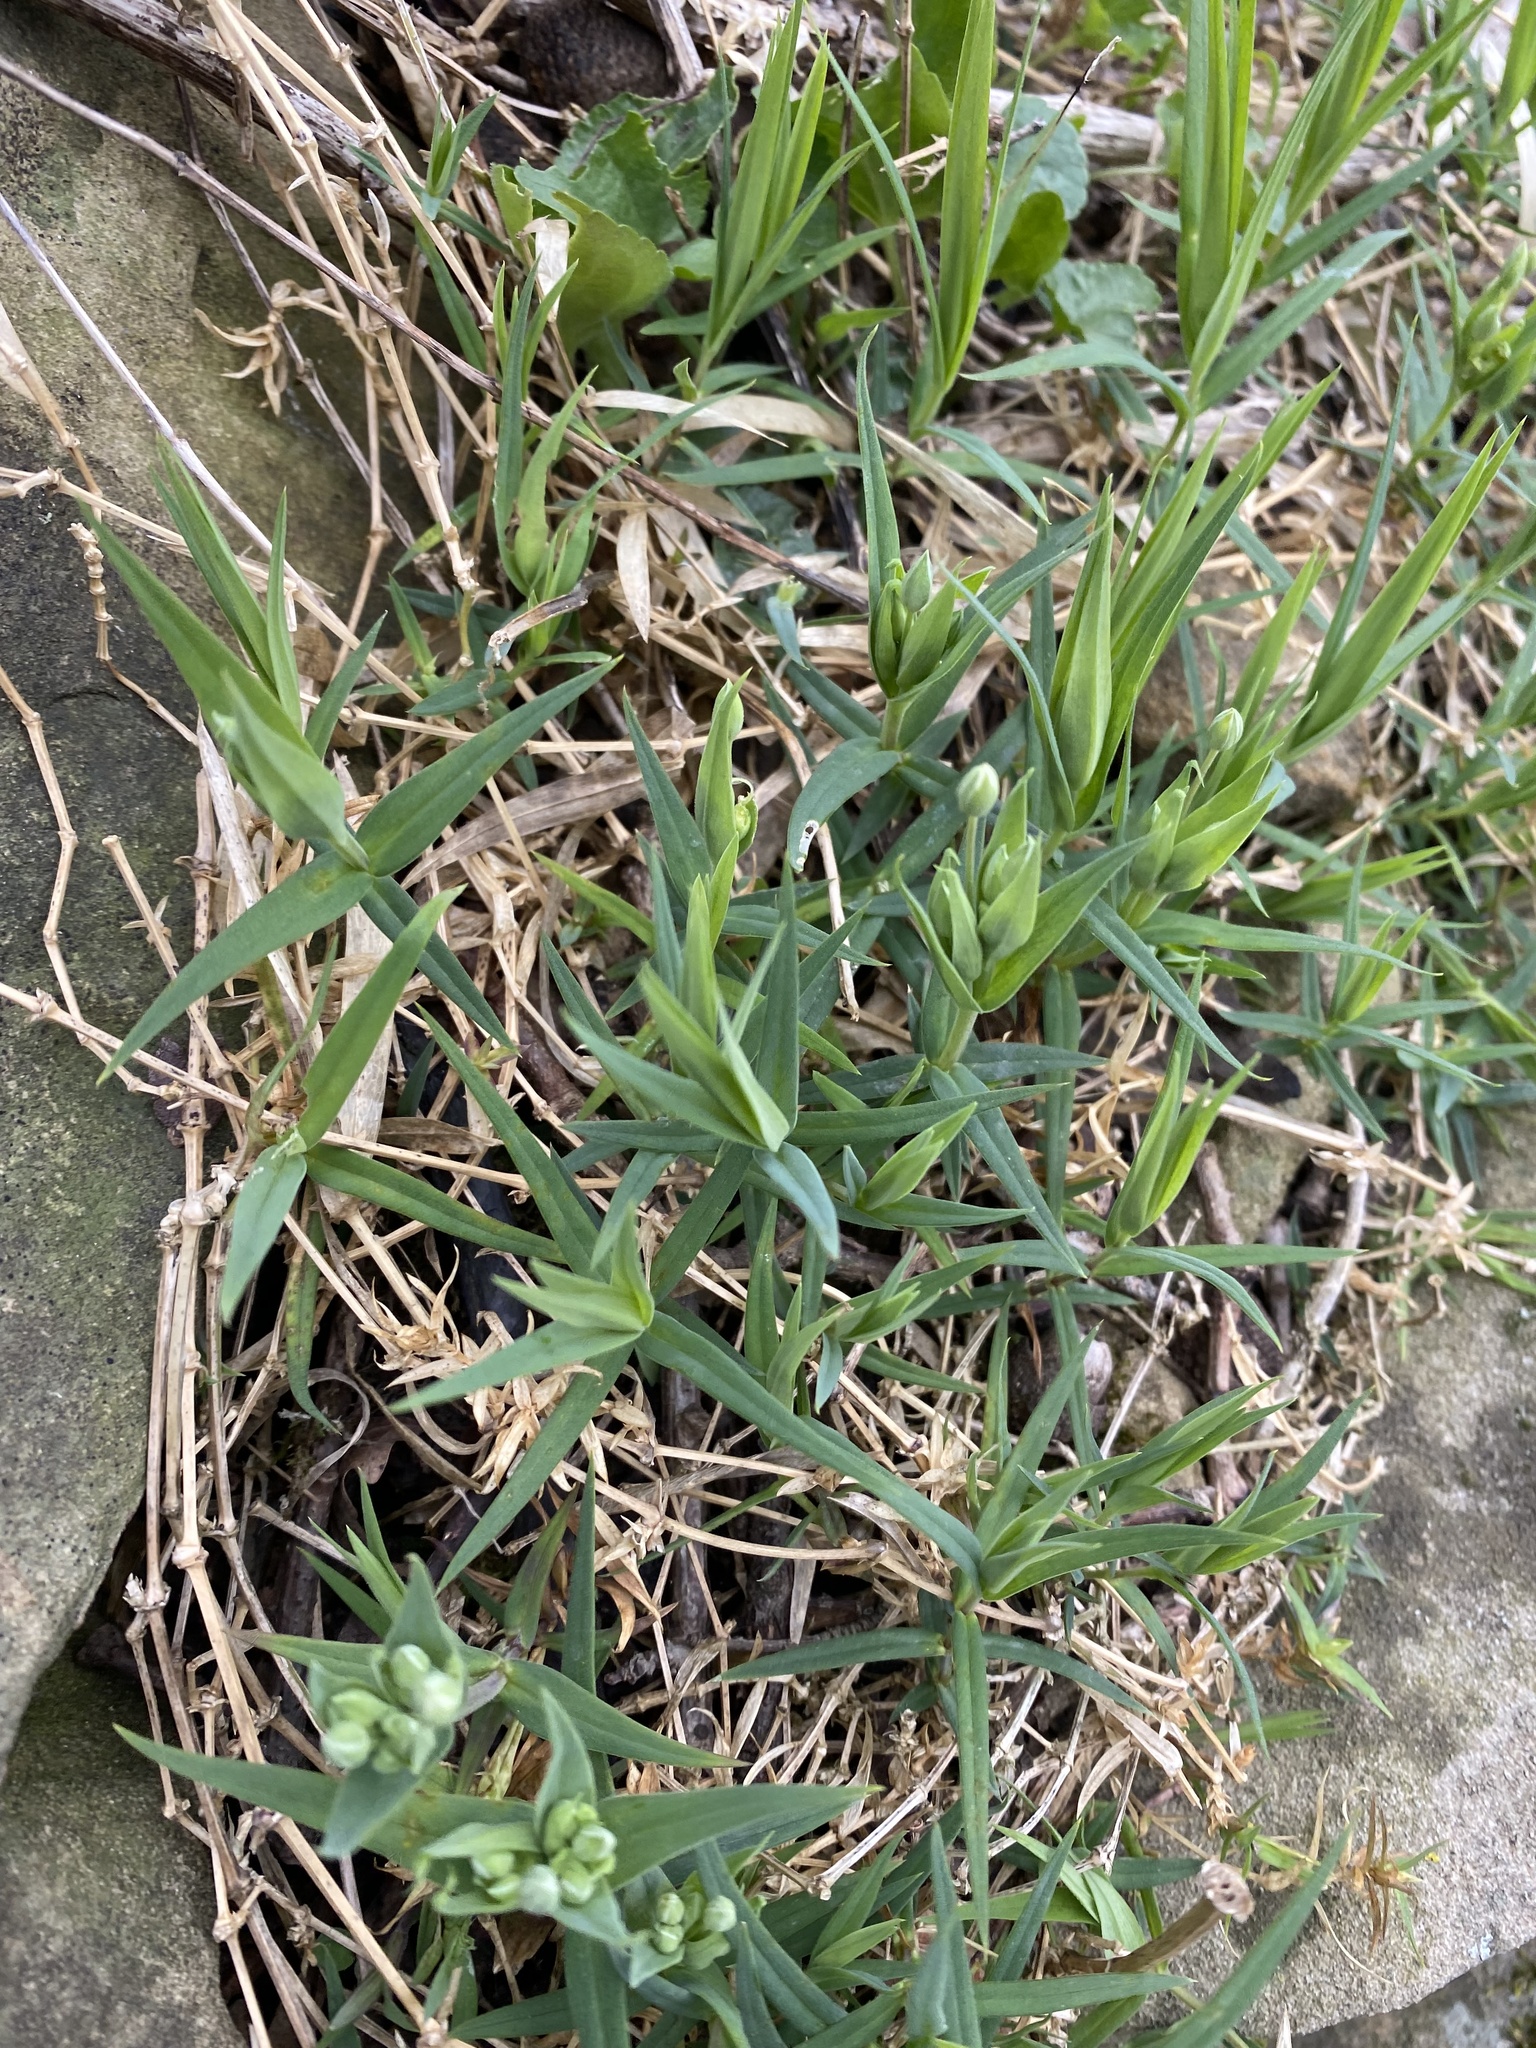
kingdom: Plantae
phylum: Tracheophyta
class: Magnoliopsida
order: Caryophyllales
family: Caryophyllaceae
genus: Rabelera
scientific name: Rabelera holostea
